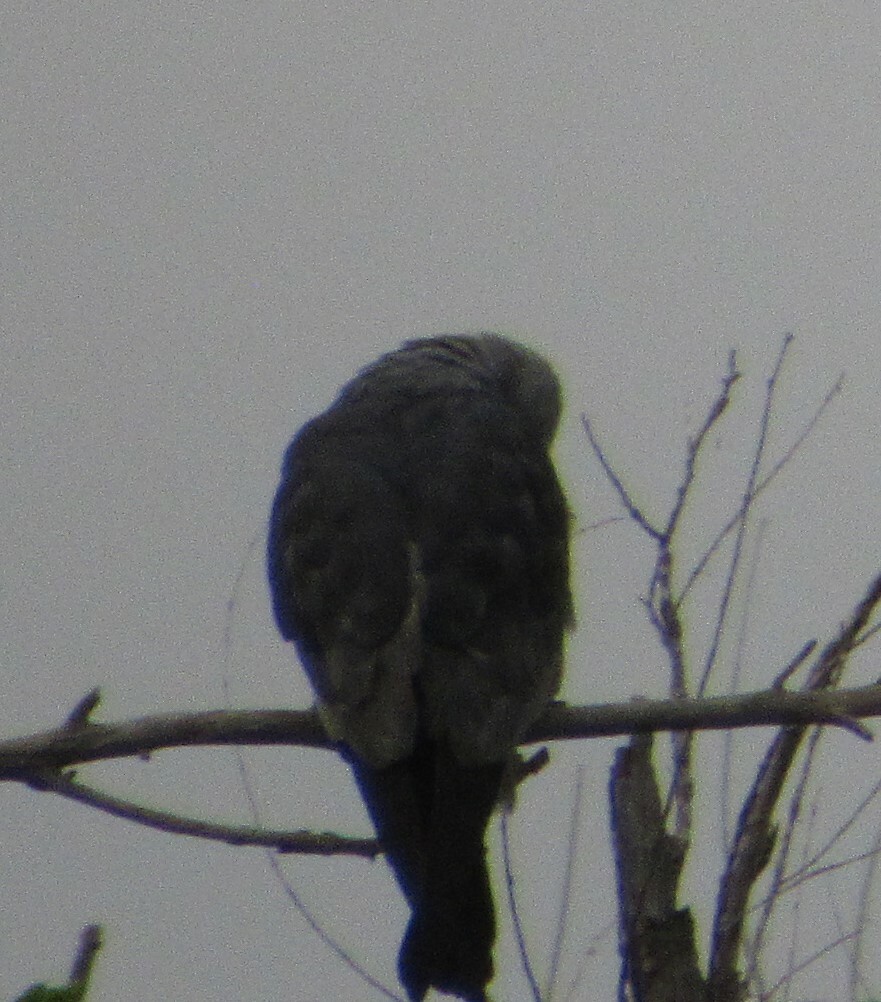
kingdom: Animalia
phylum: Chordata
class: Aves
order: Accipitriformes
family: Accipitridae
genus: Ictinia
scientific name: Ictinia mississippiensis
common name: Mississippi kite
